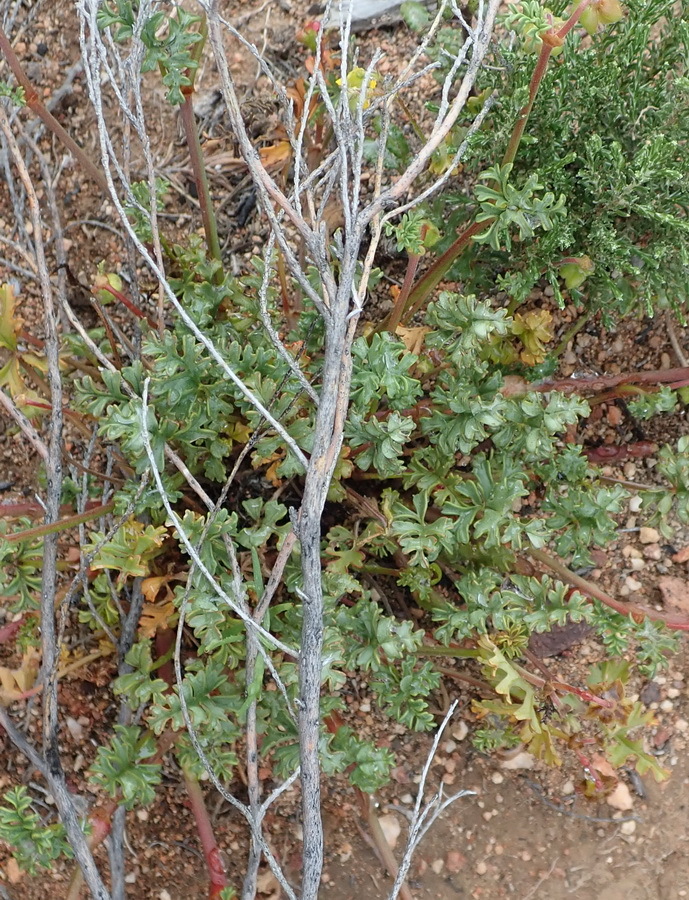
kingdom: Plantae
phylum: Tracheophyta
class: Magnoliopsida
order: Geraniales
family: Geraniaceae
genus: Pelargonium
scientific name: Pelargonium multicaule
